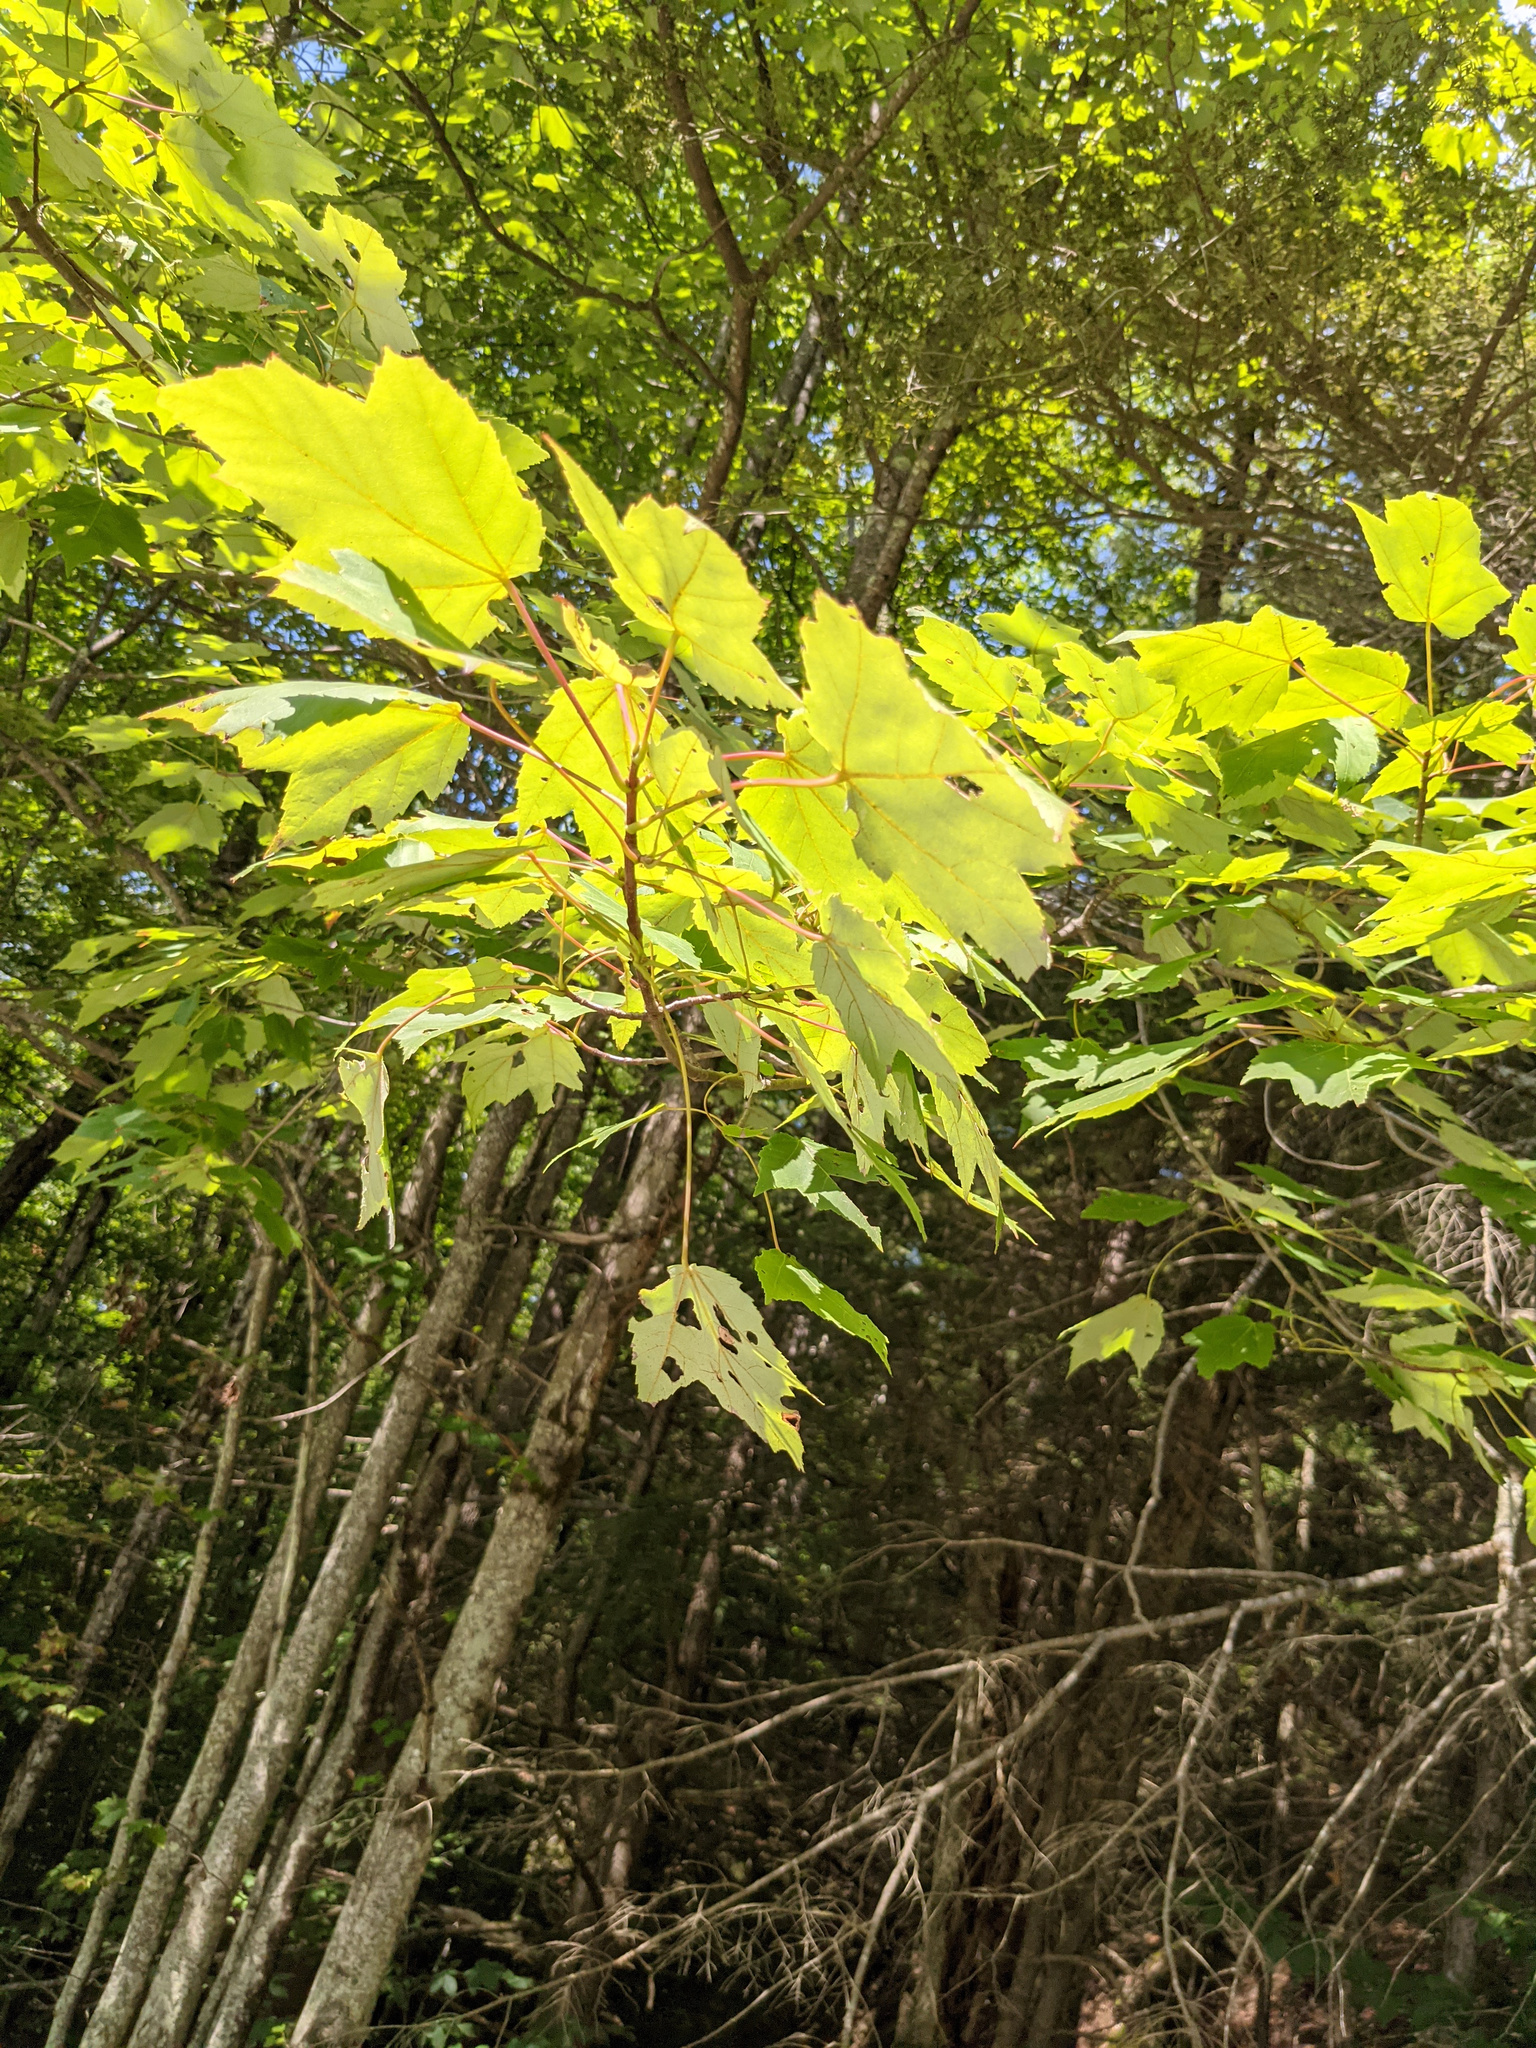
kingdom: Plantae
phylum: Tracheophyta
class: Magnoliopsida
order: Sapindales
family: Sapindaceae
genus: Acer
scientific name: Acer rubrum
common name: Red maple
